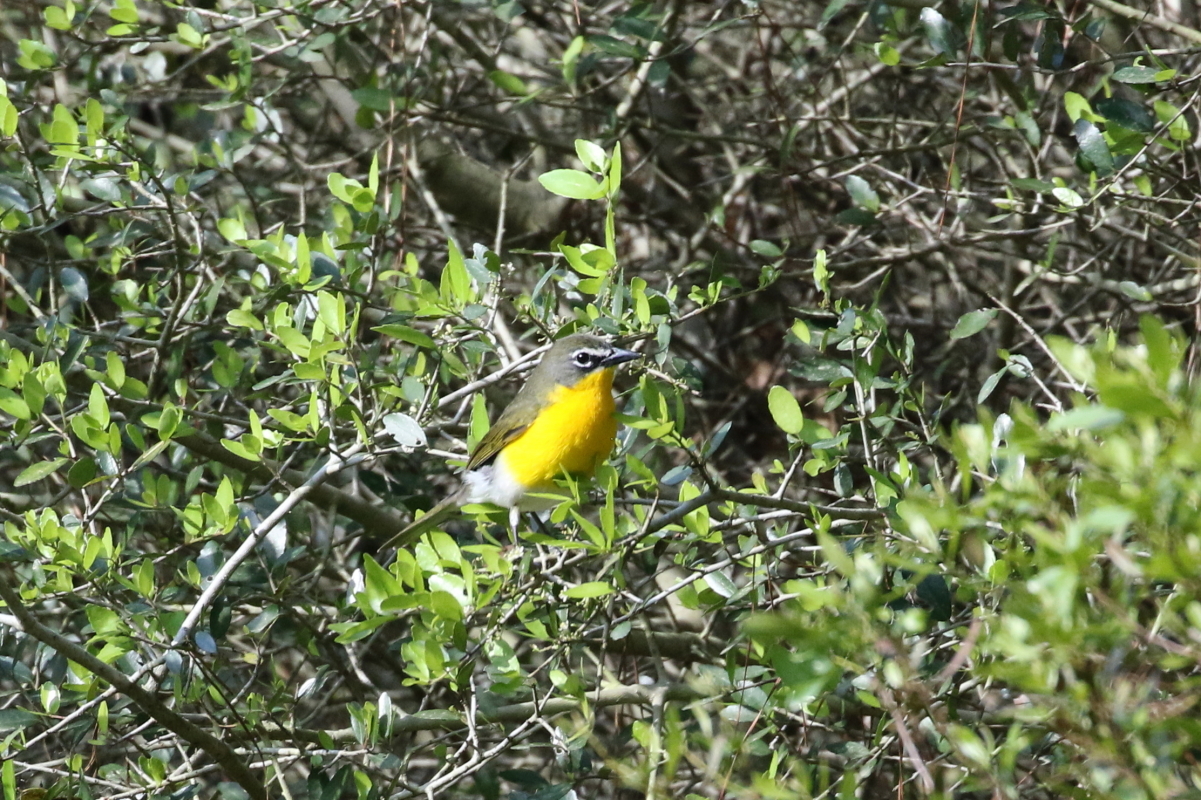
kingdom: Animalia
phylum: Chordata
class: Aves
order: Passeriformes
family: Parulidae
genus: Icteria
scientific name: Icteria virens
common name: Yellow-breasted chat
